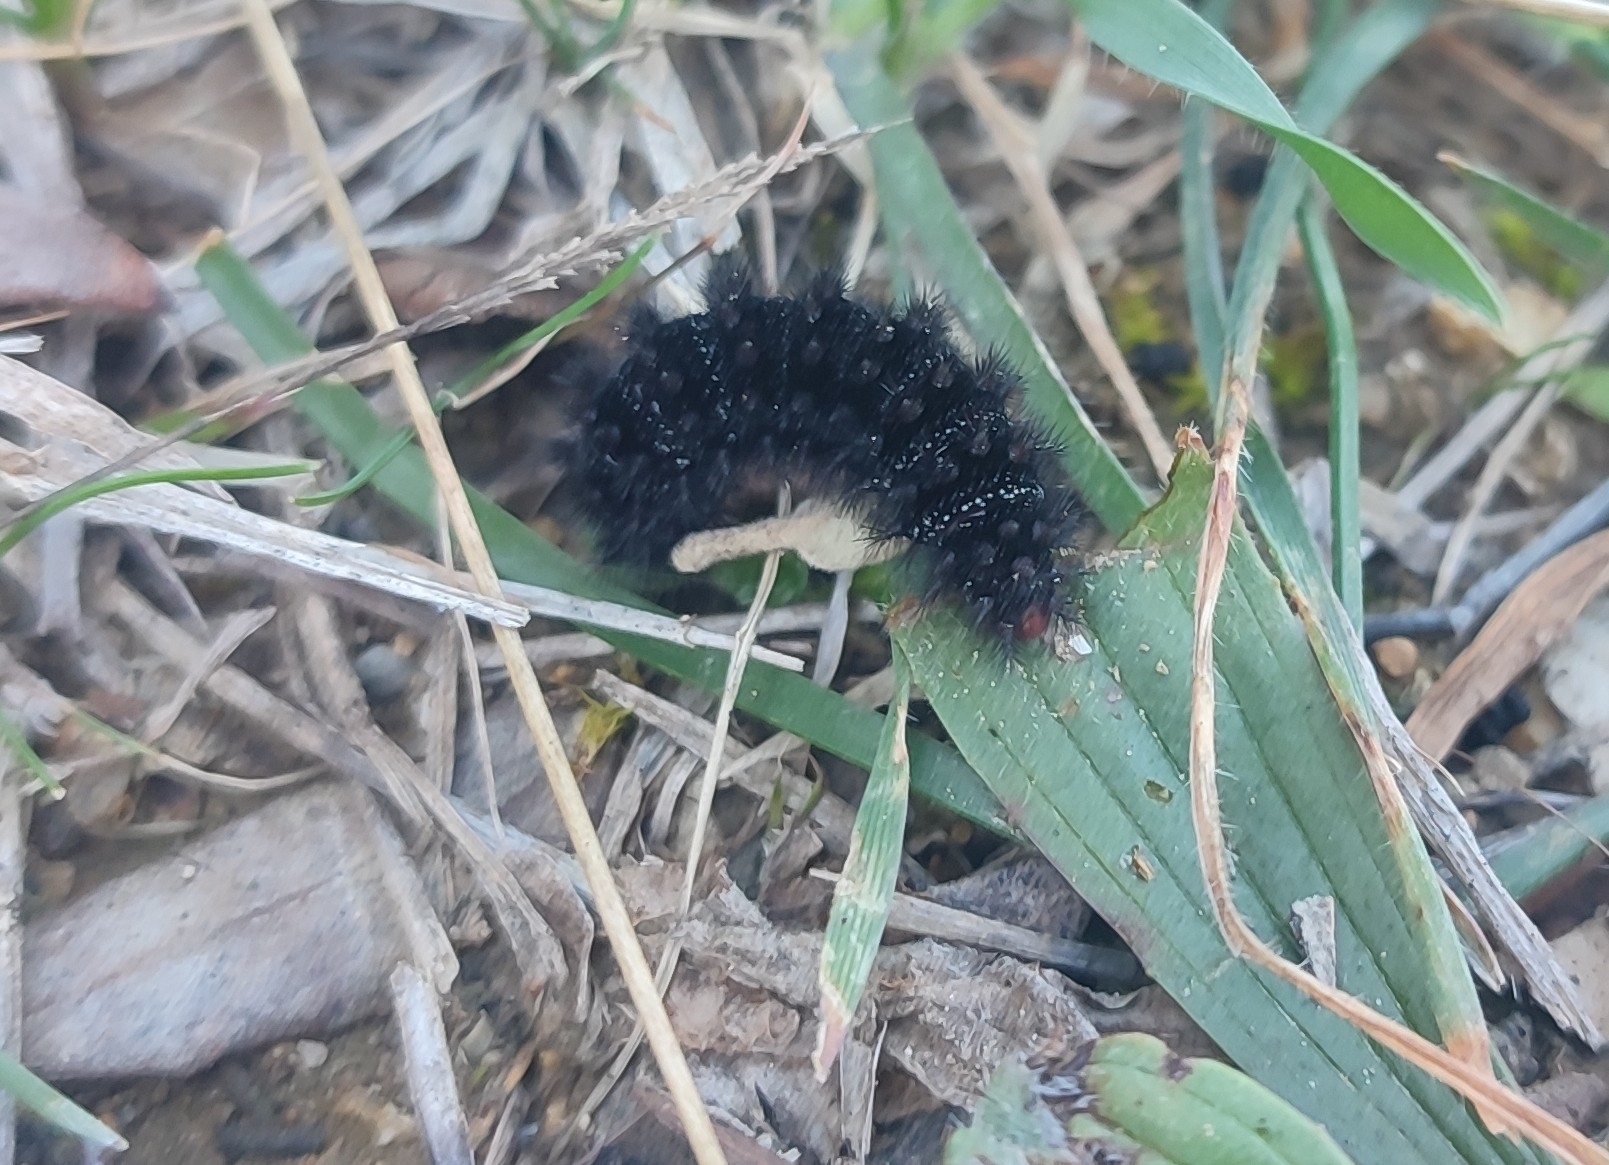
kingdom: Animalia
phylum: Arthropoda
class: Insecta
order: Lepidoptera
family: Nymphalidae
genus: Melitaea
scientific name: Melitaea cinxia
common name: Glanville fritillary
